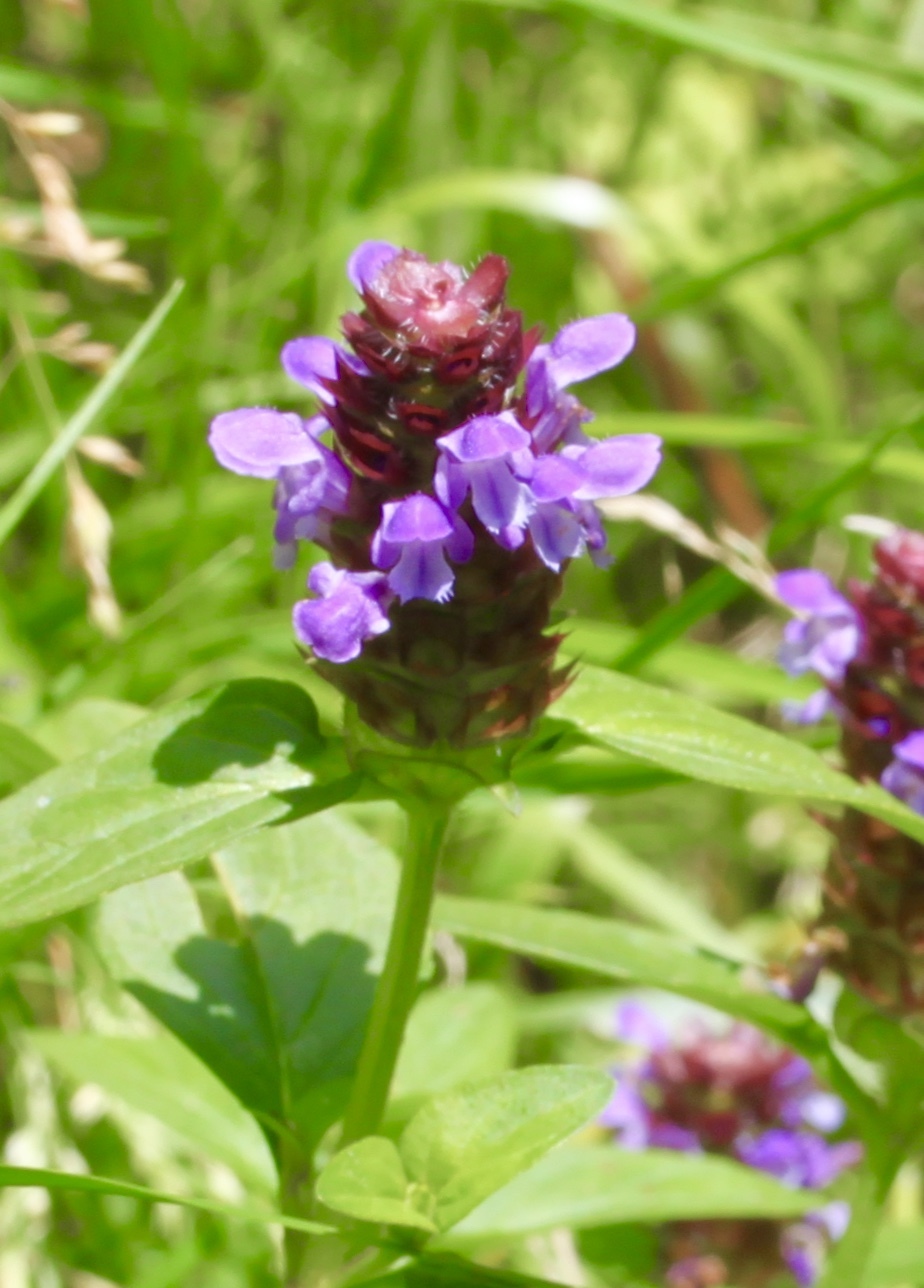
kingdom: Plantae
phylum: Tracheophyta
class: Magnoliopsida
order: Lamiales
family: Lamiaceae
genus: Prunella
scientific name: Prunella vulgaris
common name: Heal-all
